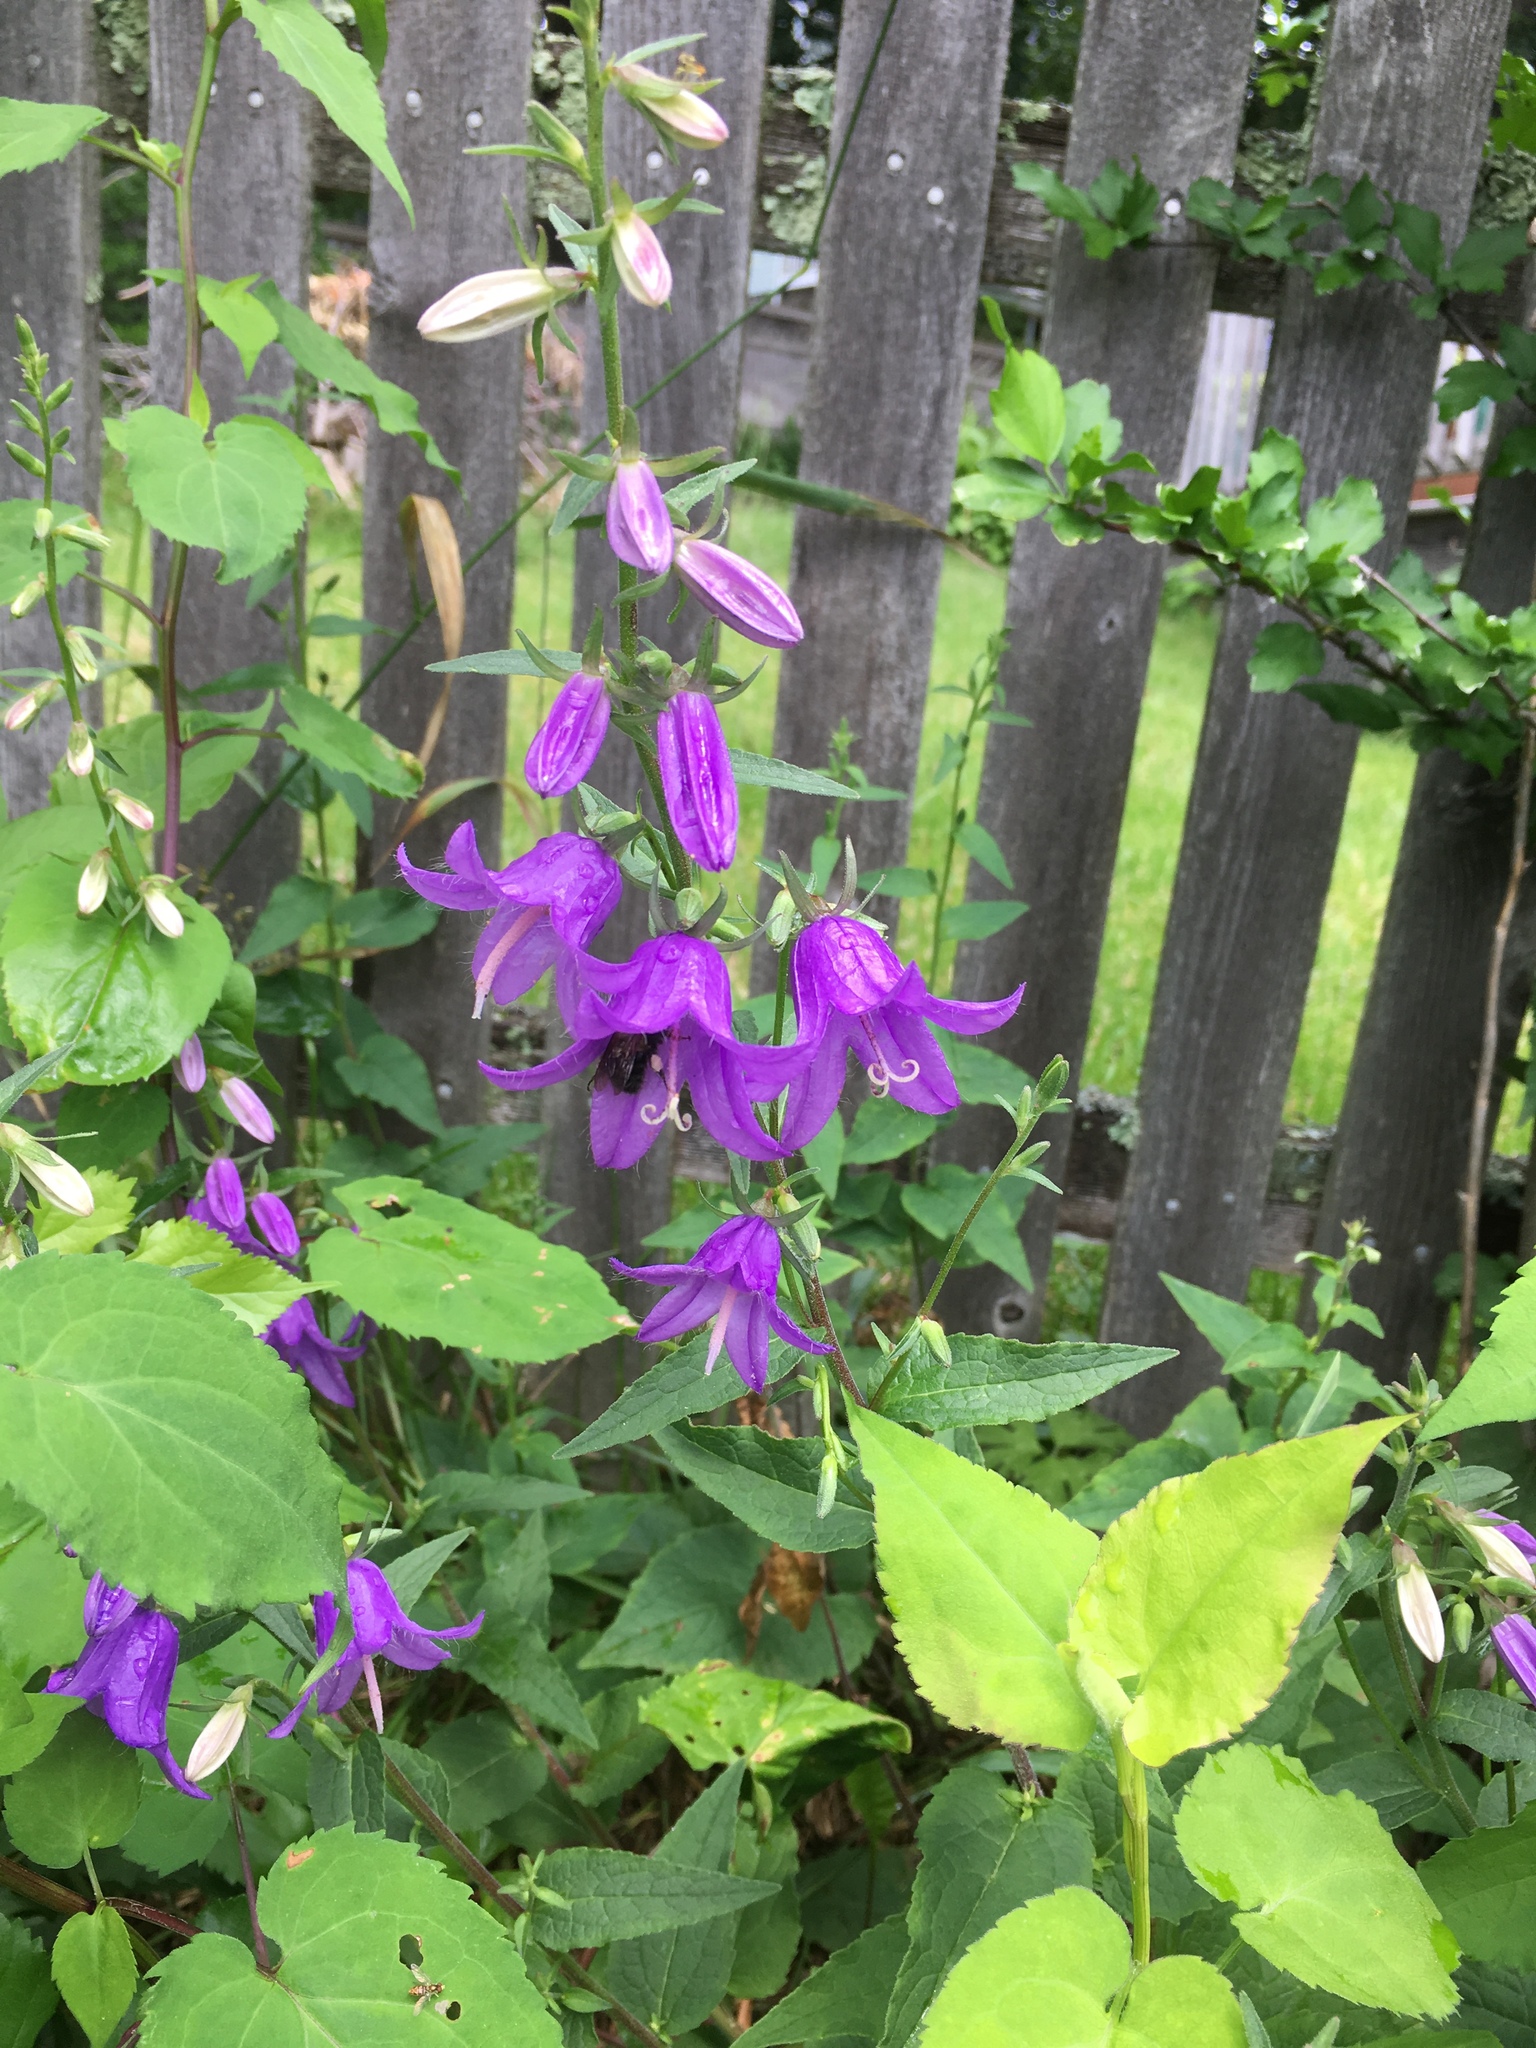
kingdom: Plantae
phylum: Tracheophyta
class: Magnoliopsida
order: Asterales
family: Campanulaceae
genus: Campanula
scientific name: Campanula rapunculoides
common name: Creeping bellflower
